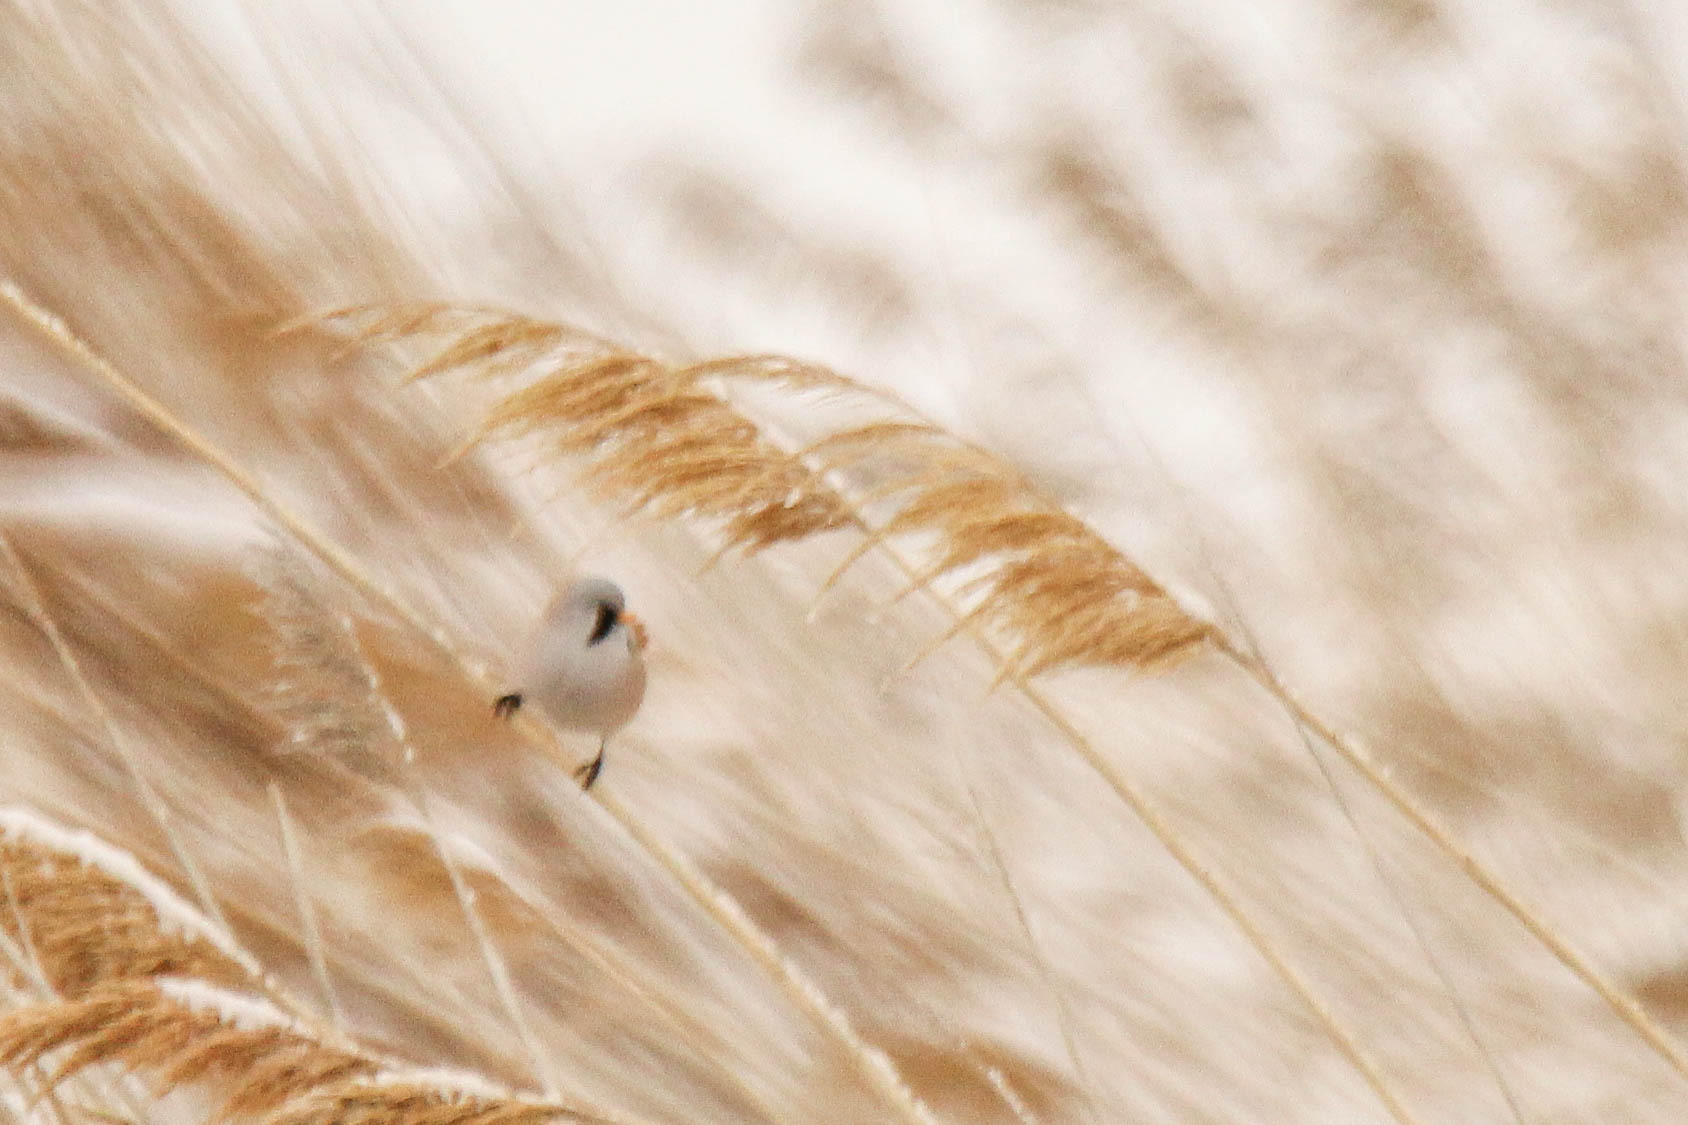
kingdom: Animalia
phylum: Chordata
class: Aves
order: Passeriformes
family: Panuridae
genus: Panurus
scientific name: Panurus biarmicus
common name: Bearded reedling
